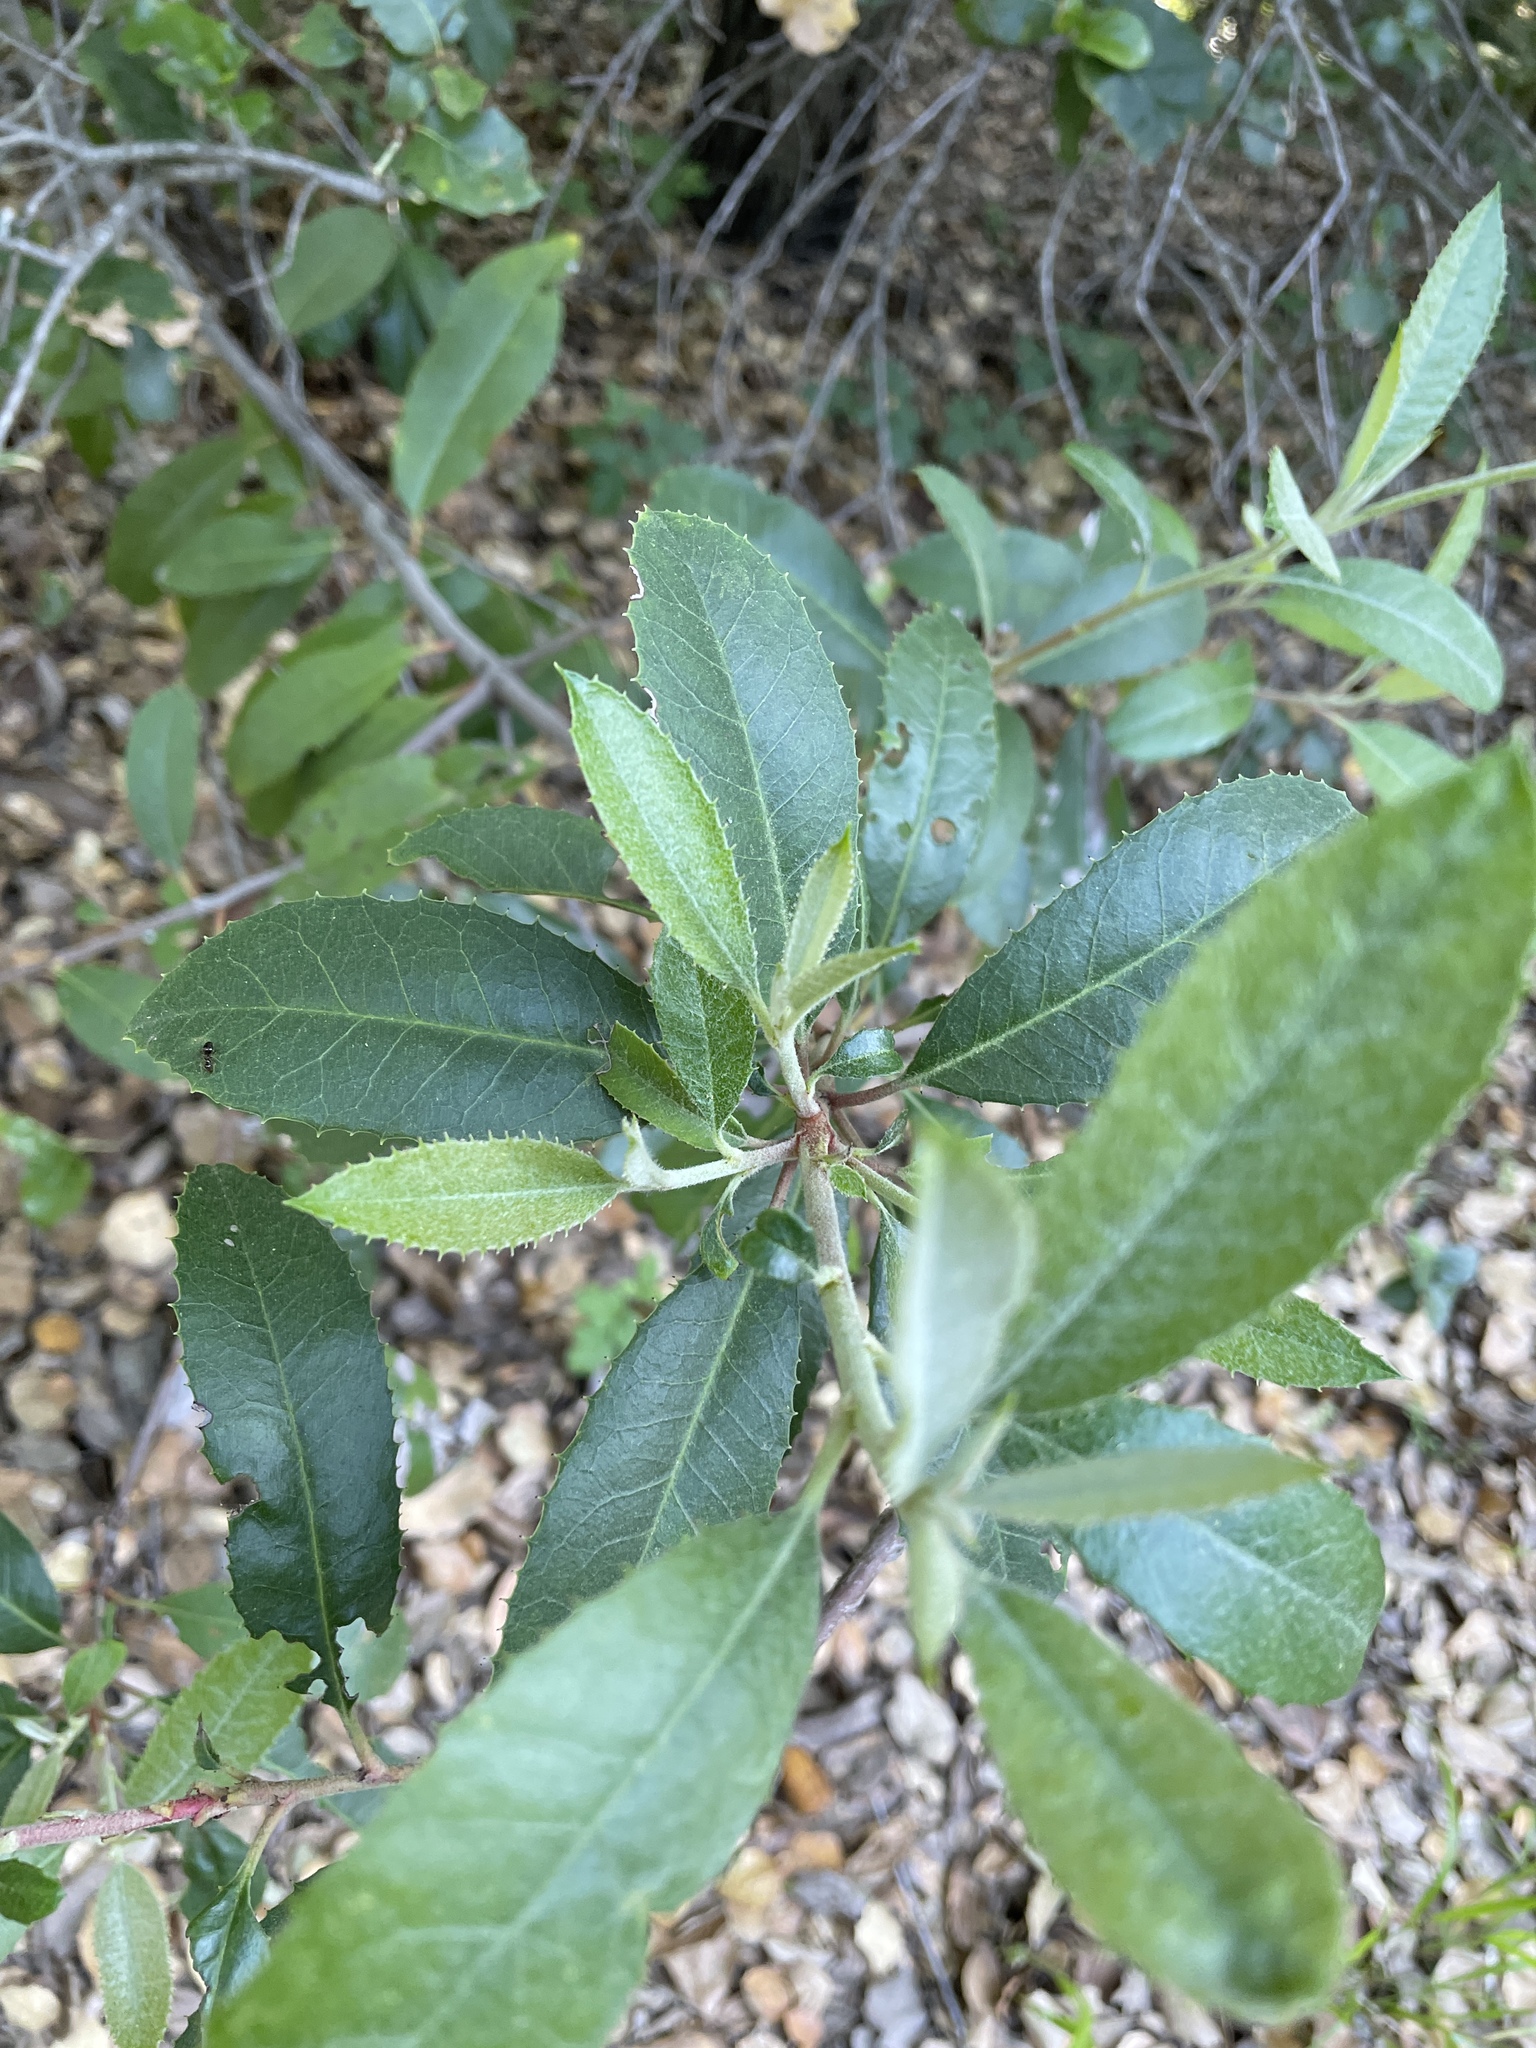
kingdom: Plantae
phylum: Tracheophyta
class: Magnoliopsida
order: Rosales
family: Rosaceae
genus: Heteromeles
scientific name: Heteromeles arbutifolia
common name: California-holly
